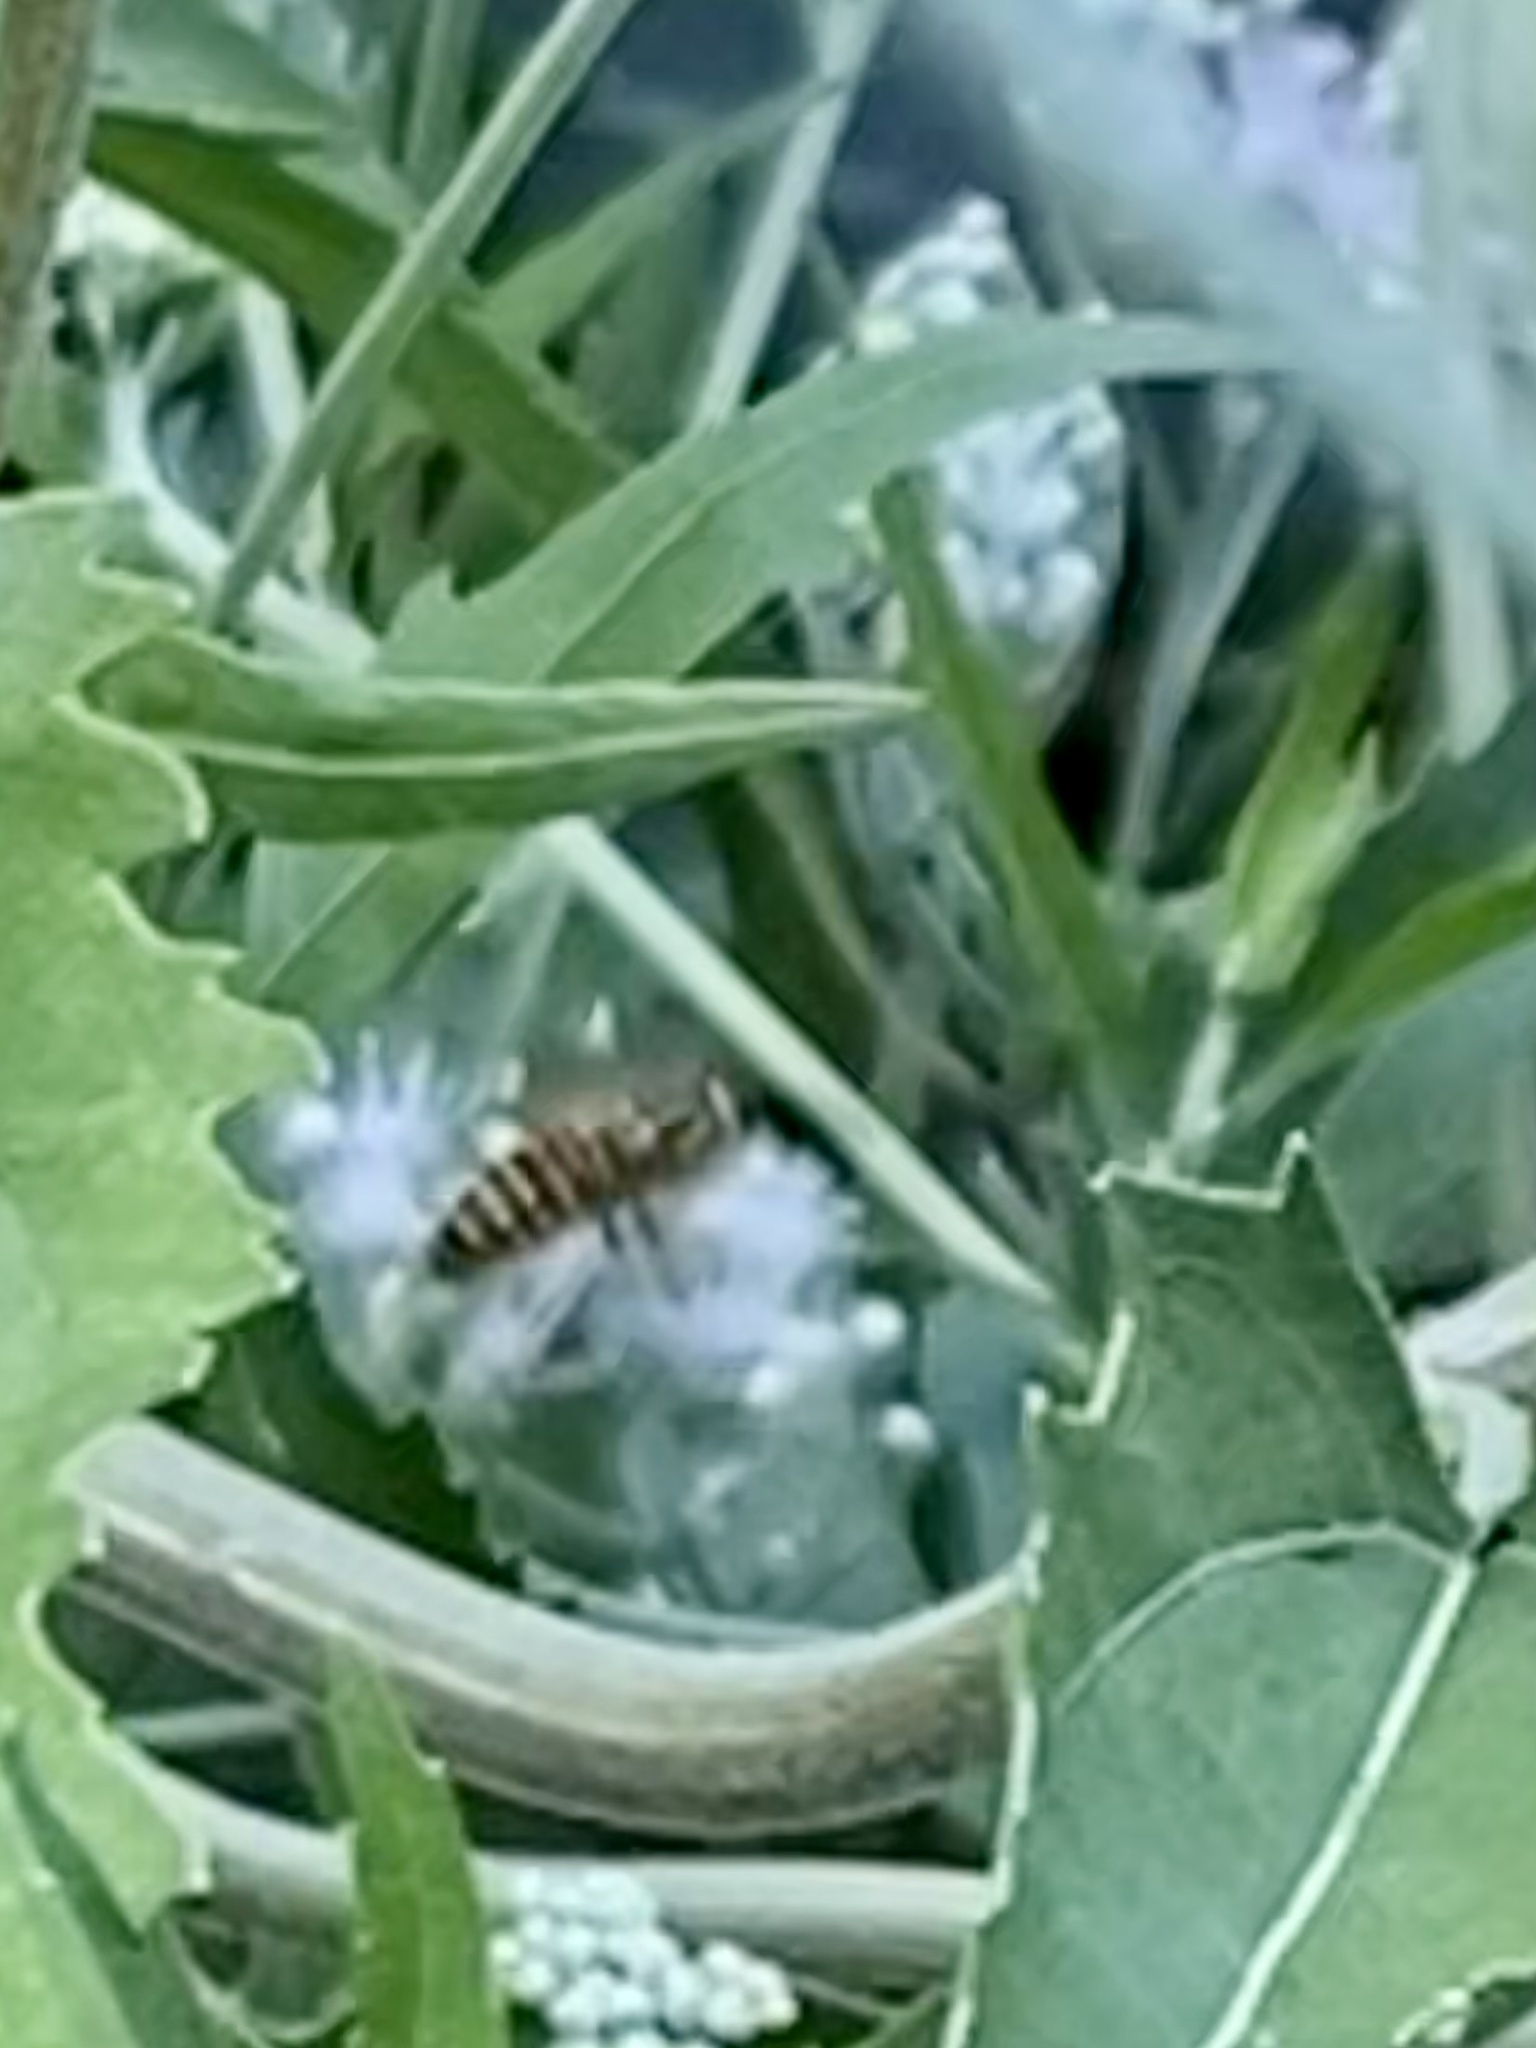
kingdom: Animalia
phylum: Arthropoda
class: Insecta
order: Hymenoptera
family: Vespidae
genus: Vespula
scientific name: Vespula squamosa
